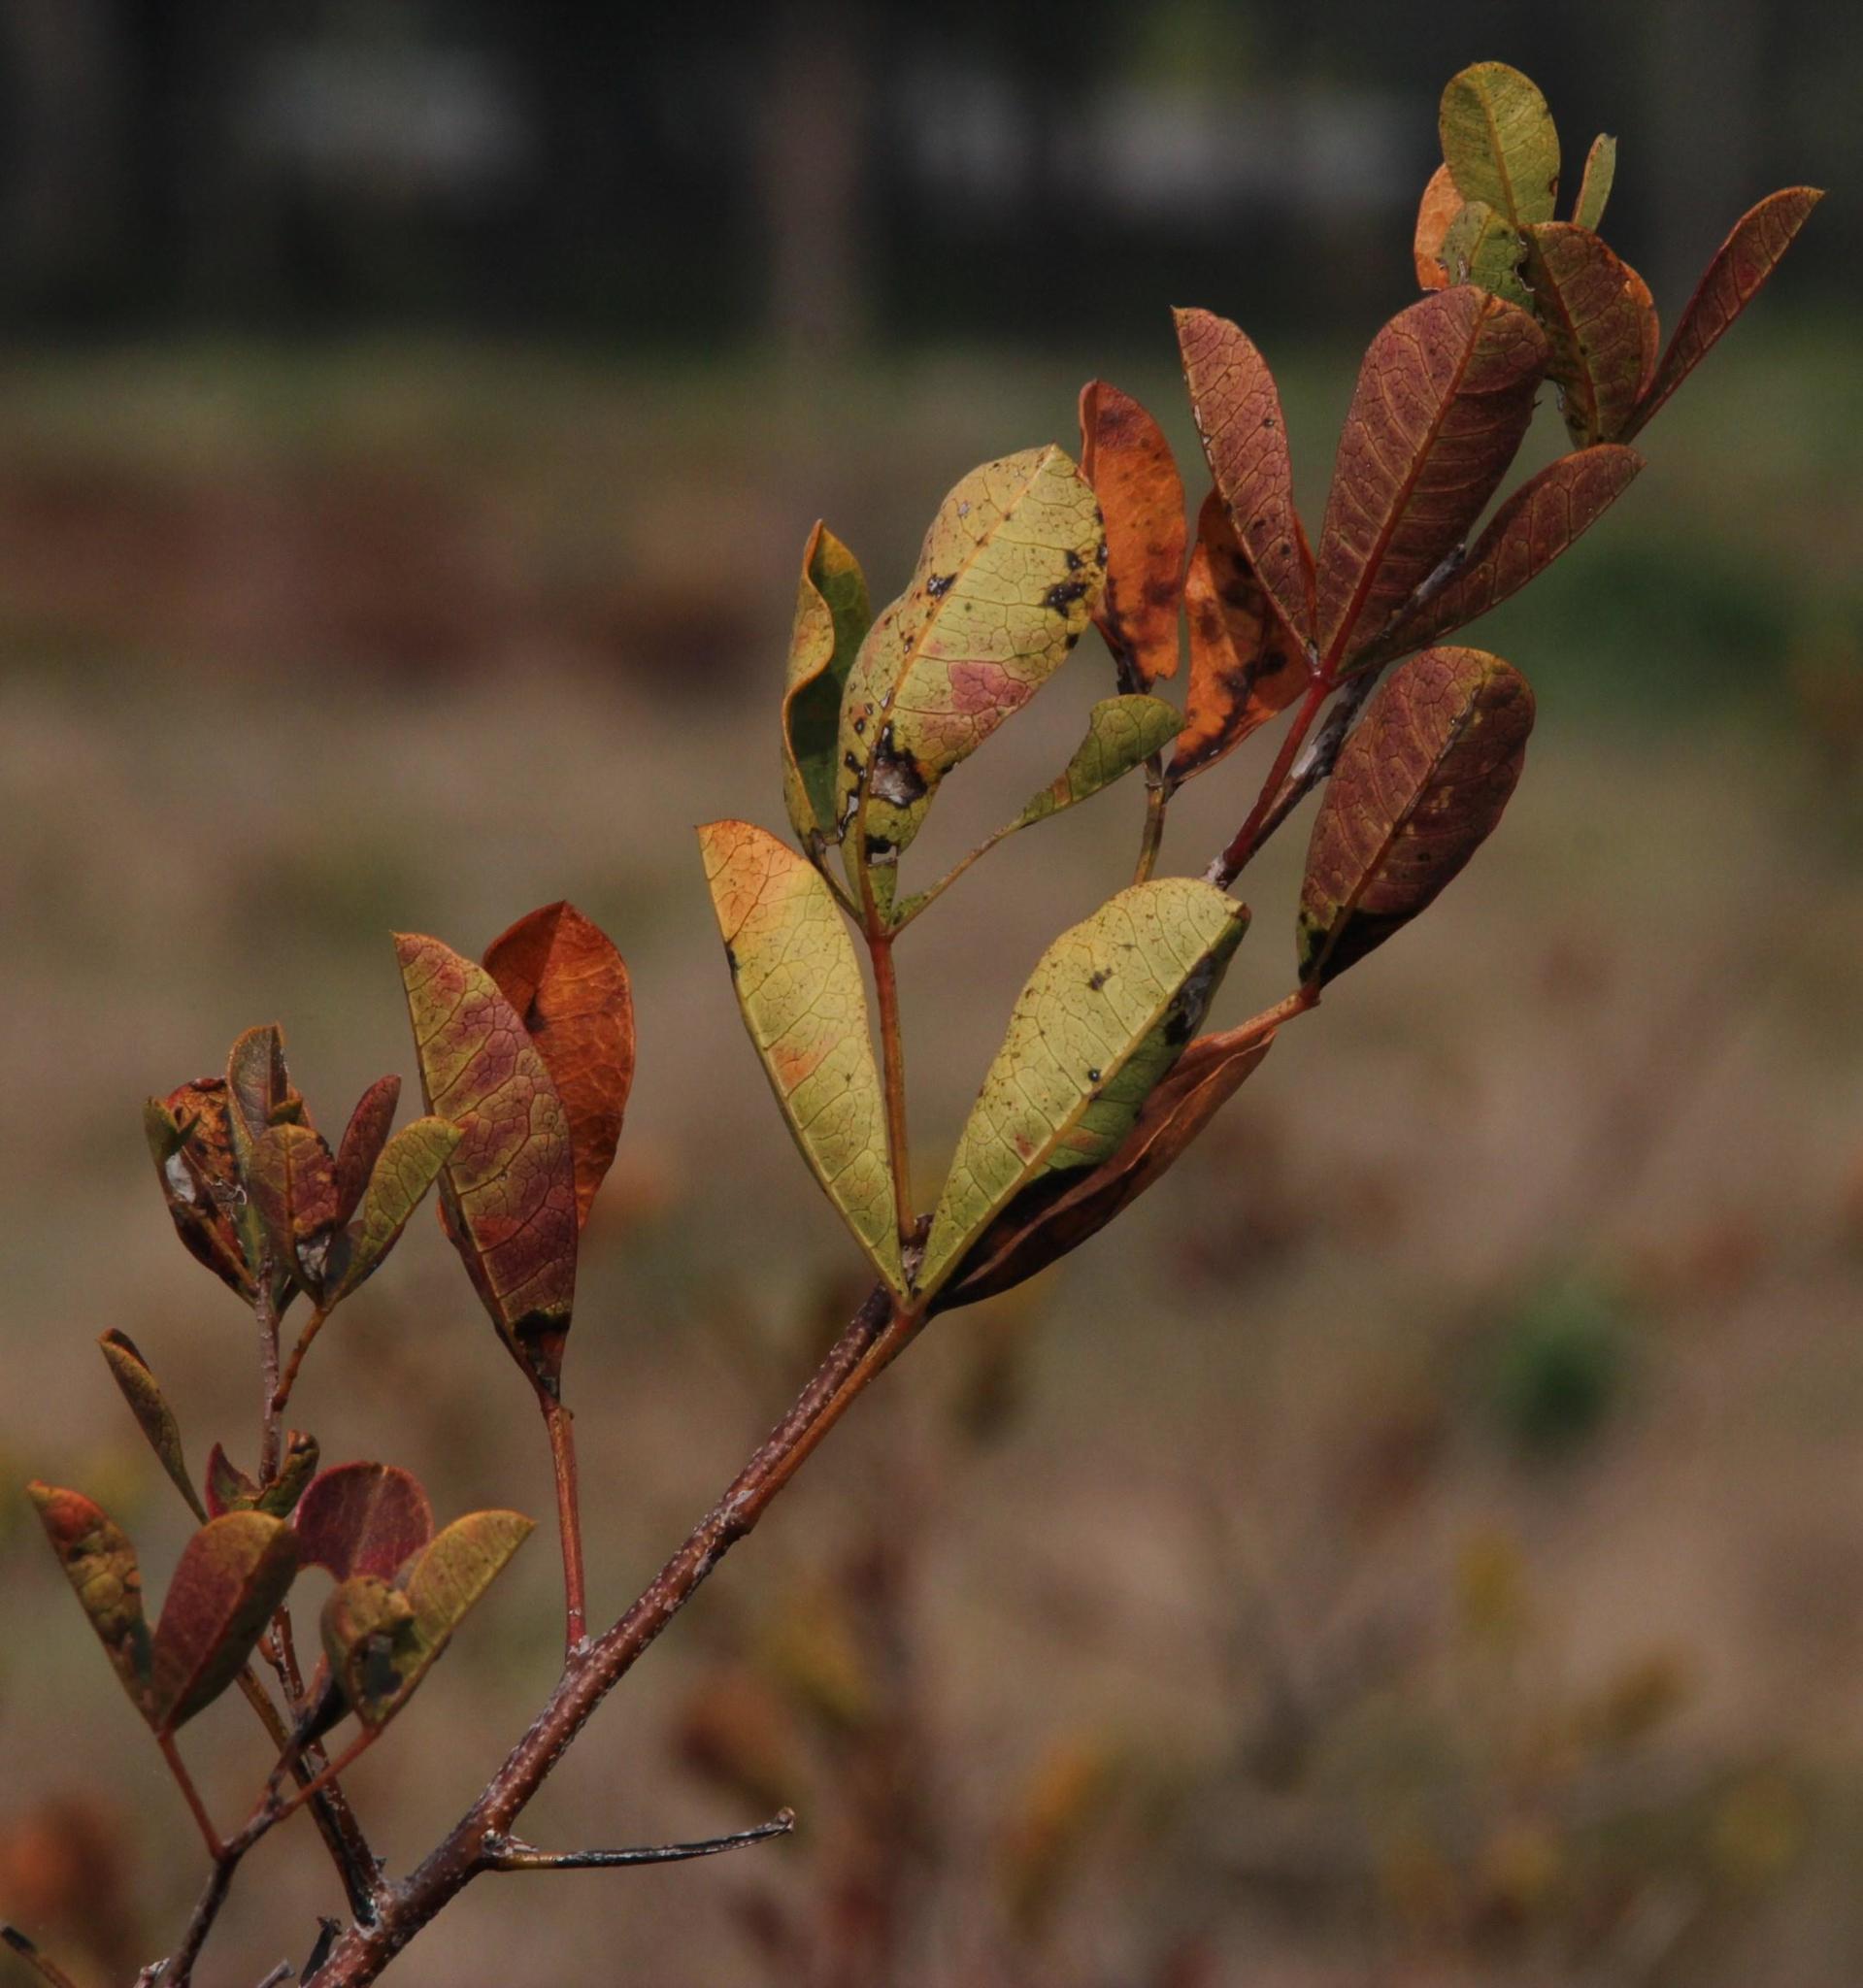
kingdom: Plantae
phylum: Tracheophyta
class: Magnoliopsida
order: Sapindales
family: Anacardiaceae
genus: Searsia
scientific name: Searsia laevigata
